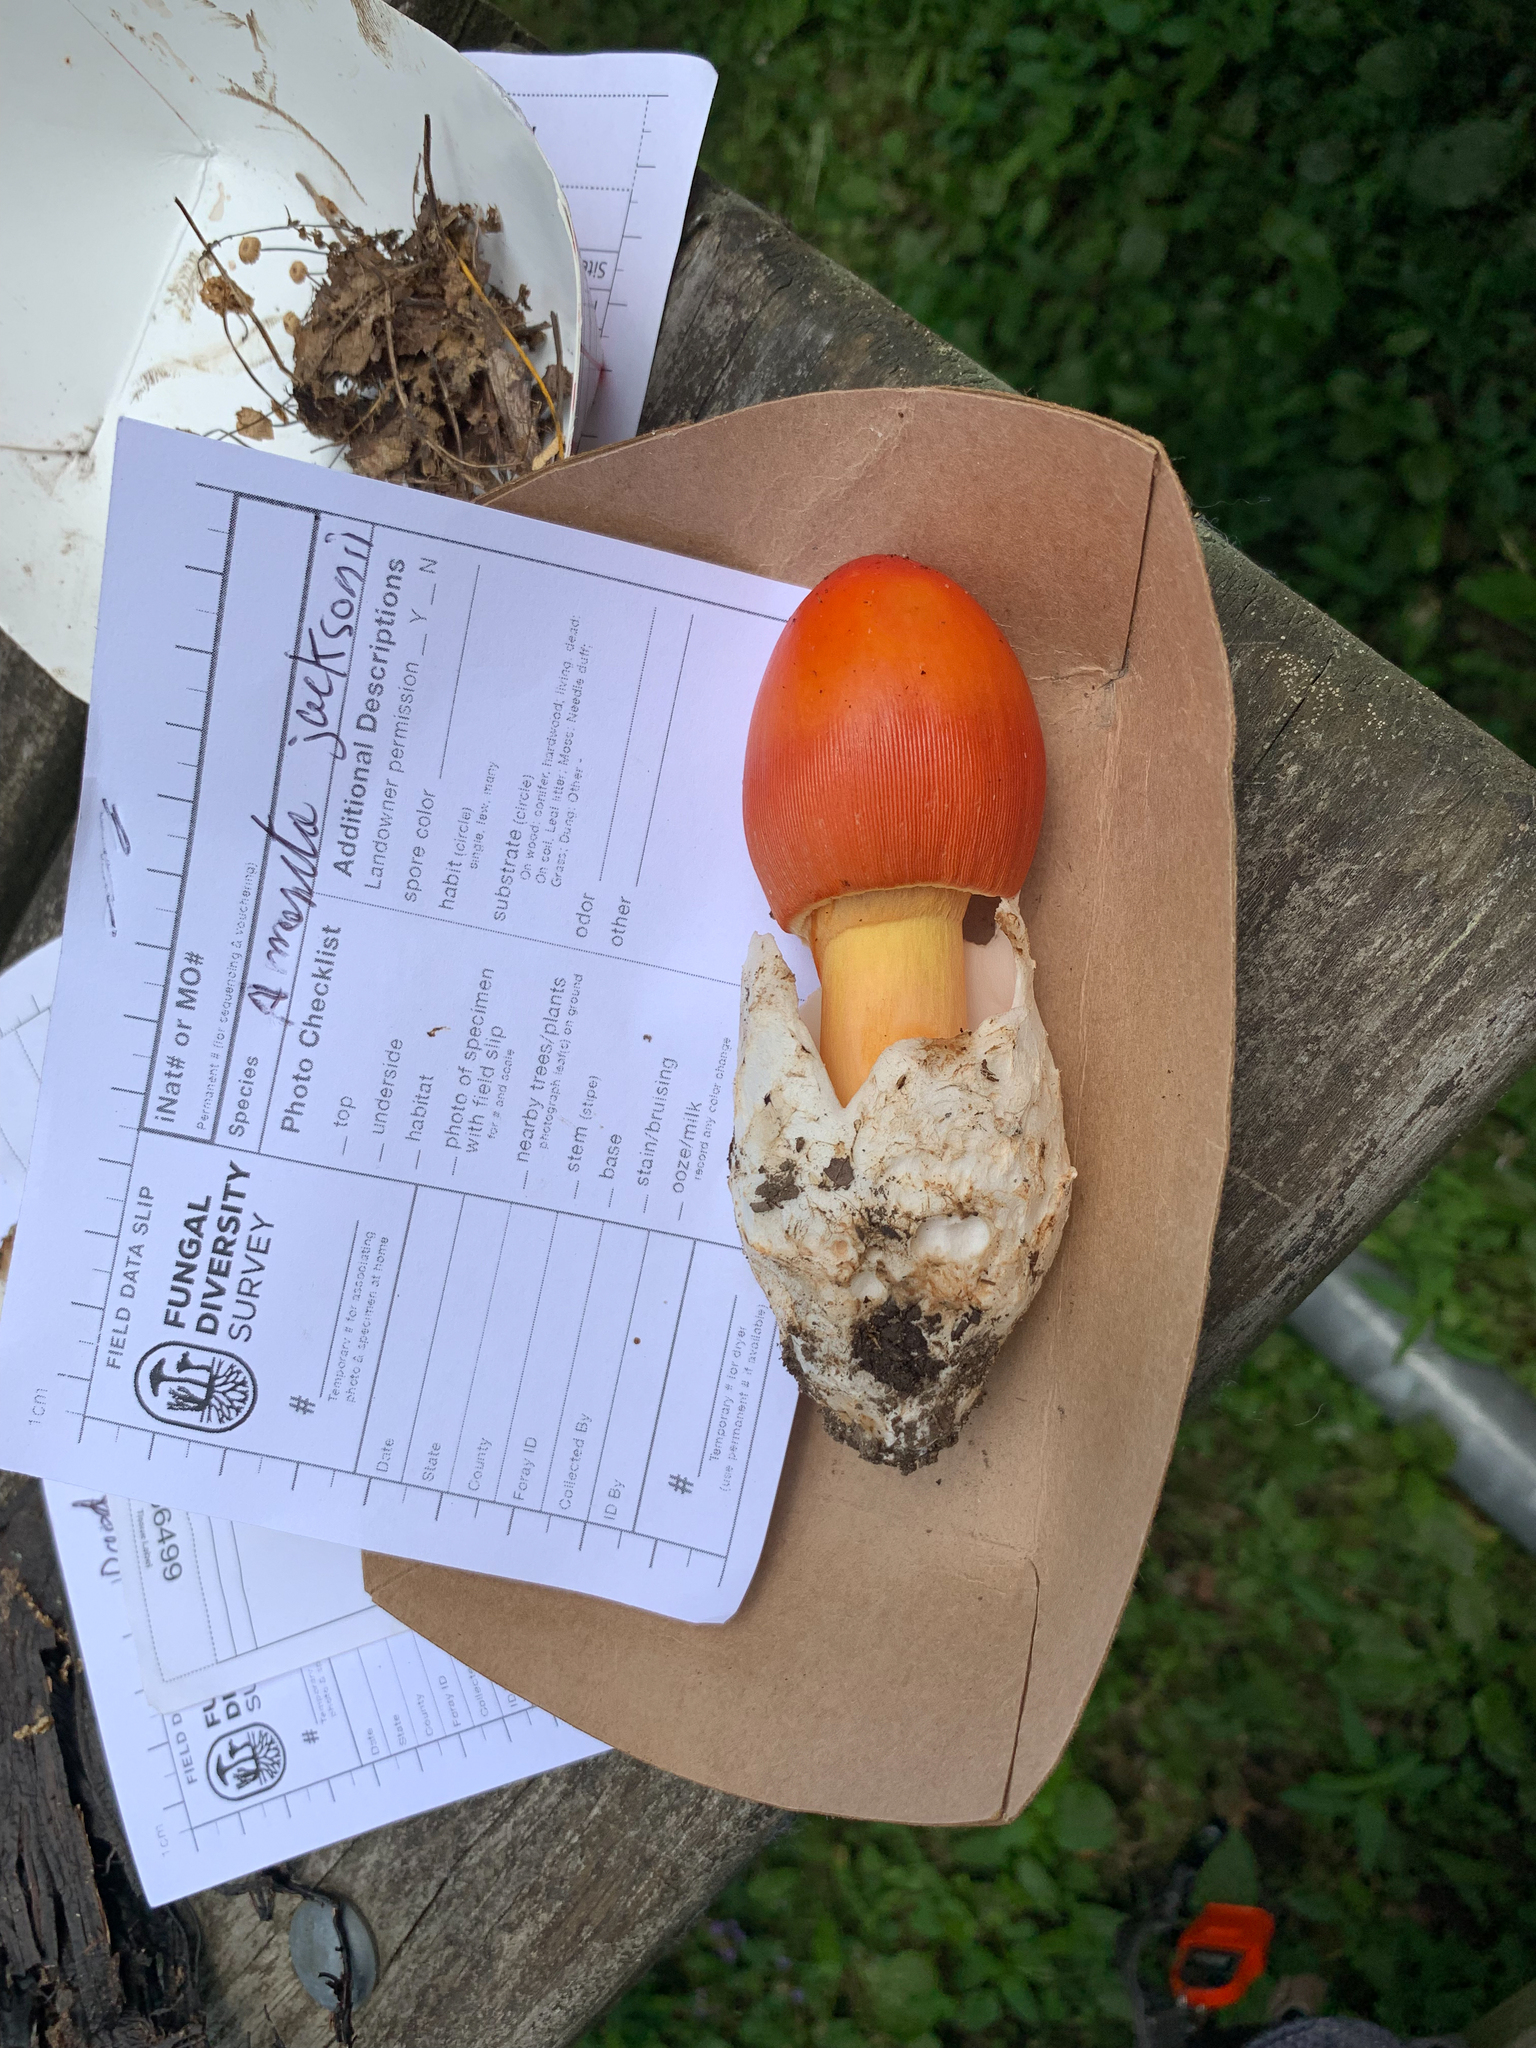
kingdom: Fungi
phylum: Basidiomycota
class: Agaricomycetes
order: Agaricales
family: Amanitaceae
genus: Amanita
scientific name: Amanita jacksonii
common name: Jackson's slender caesar
